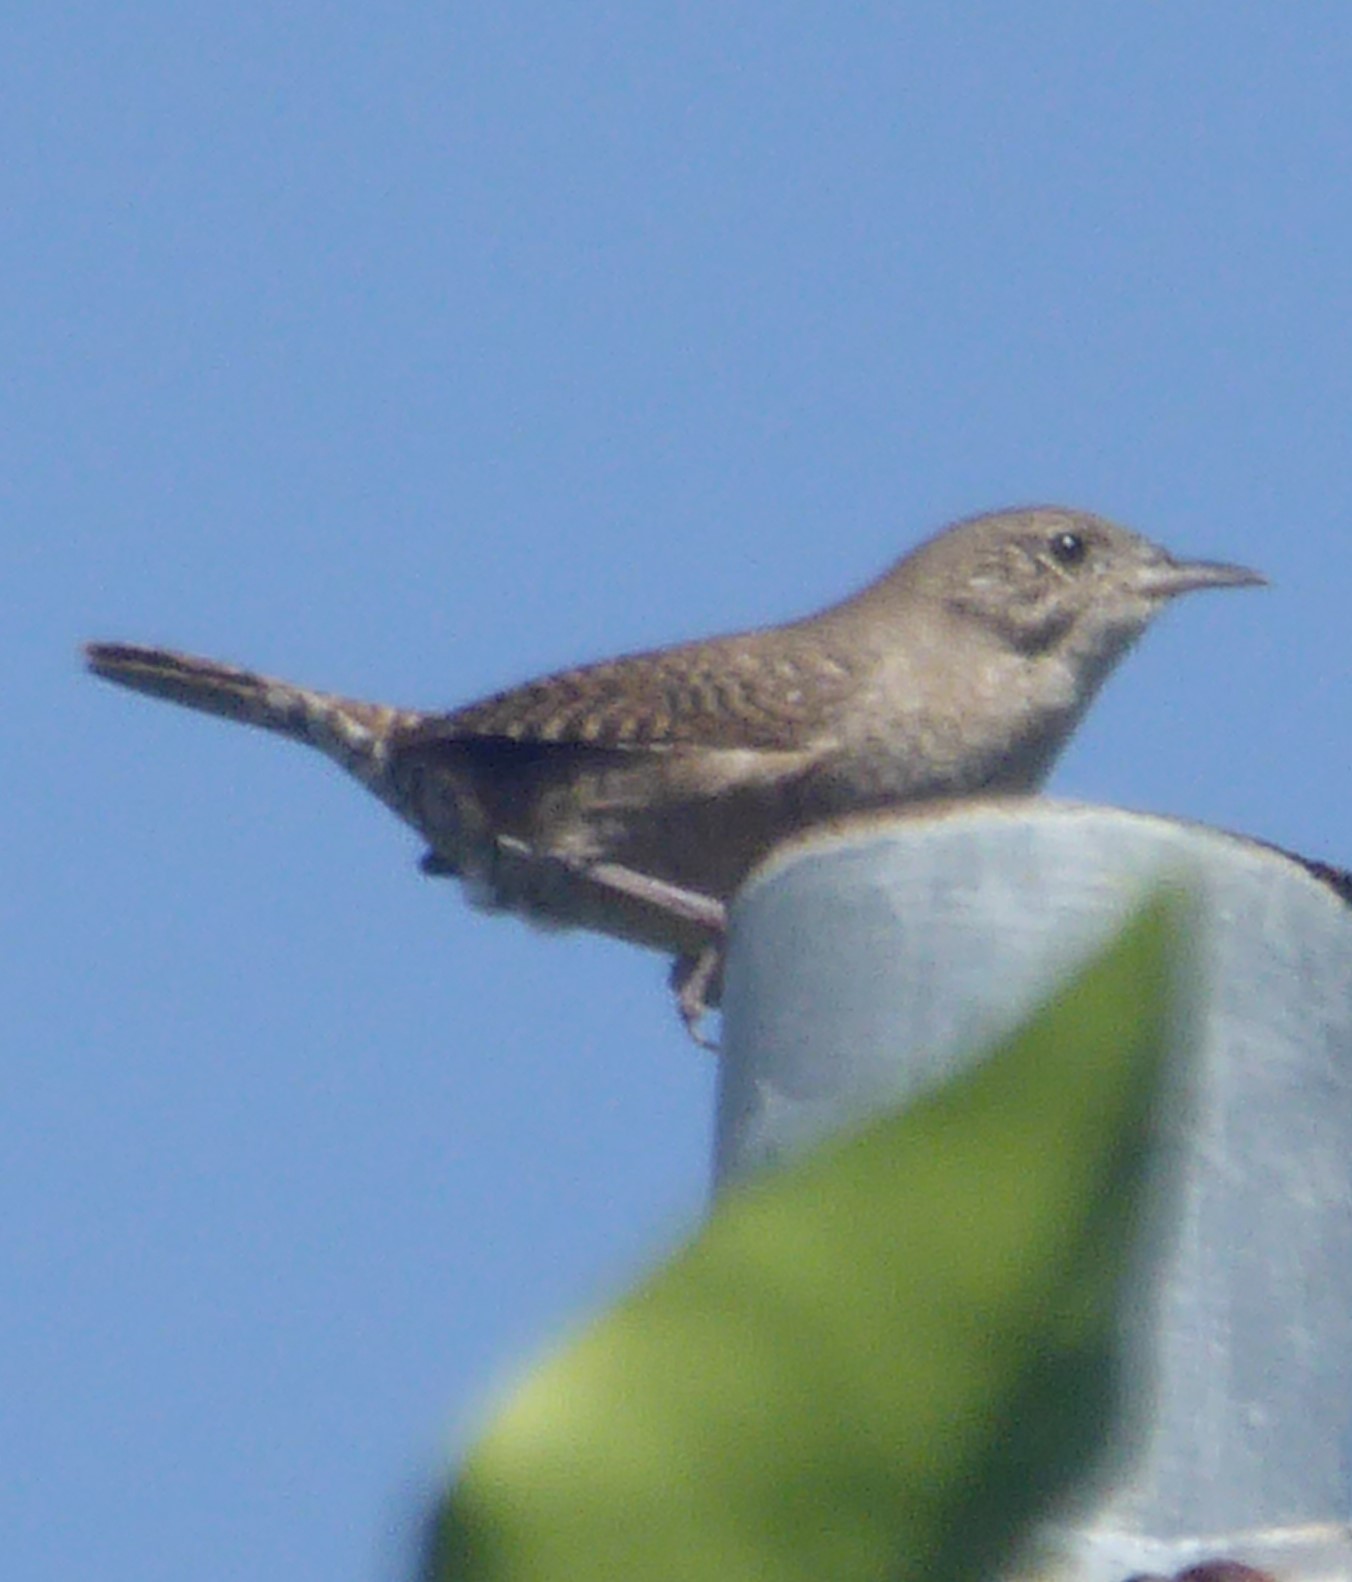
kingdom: Animalia
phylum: Chordata
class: Aves
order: Passeriformes
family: Troglodytidae
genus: Troglodytes
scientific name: Troglodytes aedon
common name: House wren
